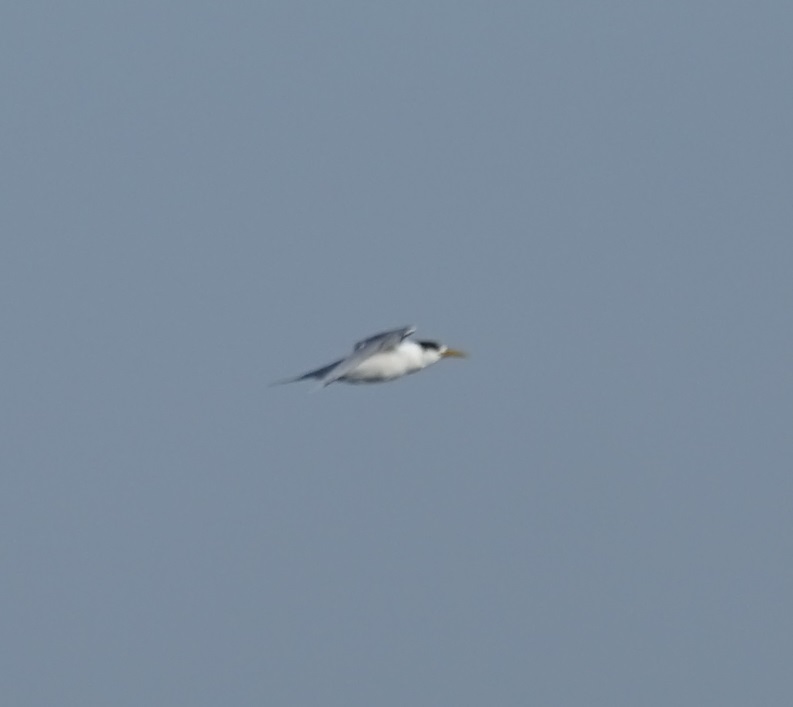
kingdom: Animalia
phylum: Chordata
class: Aves
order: Charadriiformes
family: Laridae
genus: Thalasseus
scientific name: Thalasseus bergii
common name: Greater crested tern
